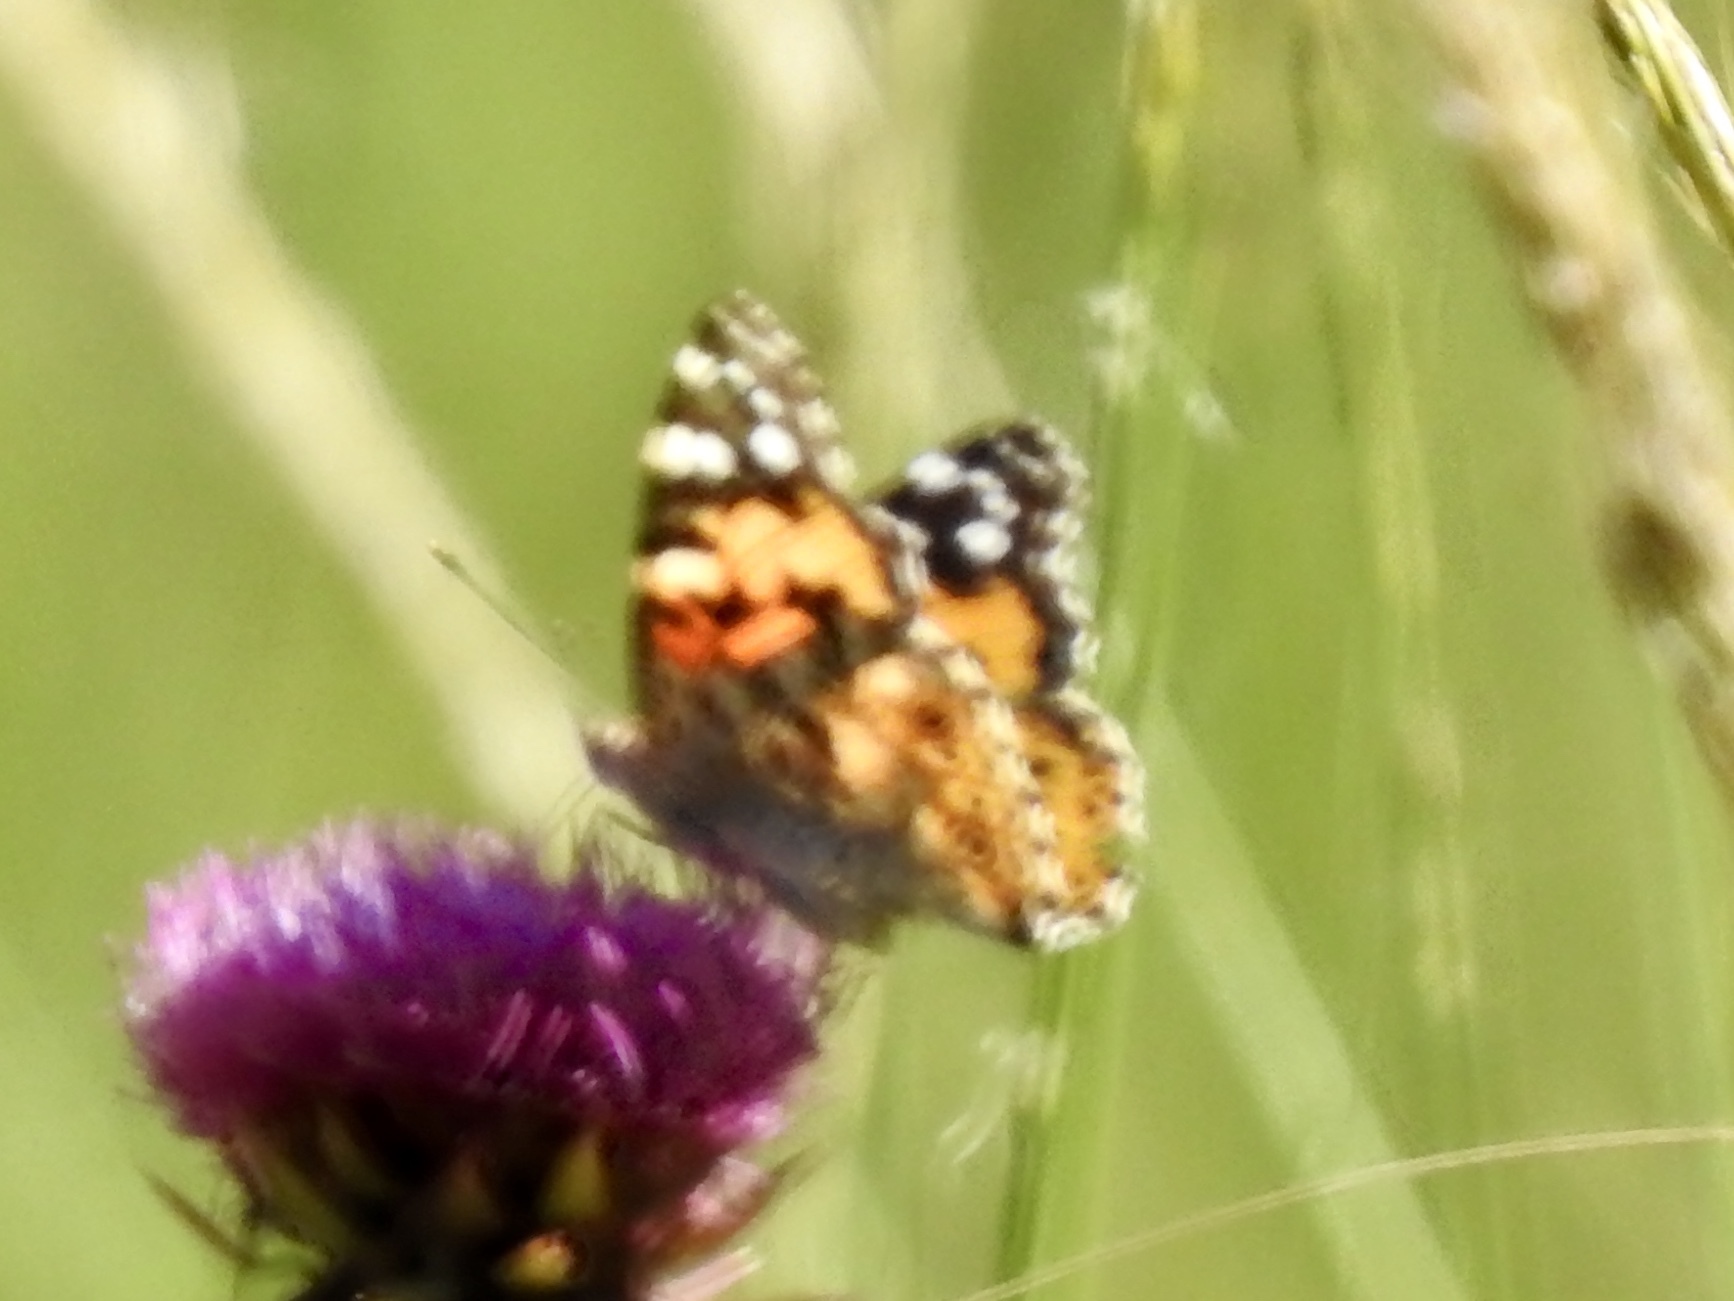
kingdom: Animalia
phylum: Arthropoda
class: Insecta
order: Lepidoptera
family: Nymphalidae
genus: Vanessa
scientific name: Vanessa cardui
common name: Painted lady
